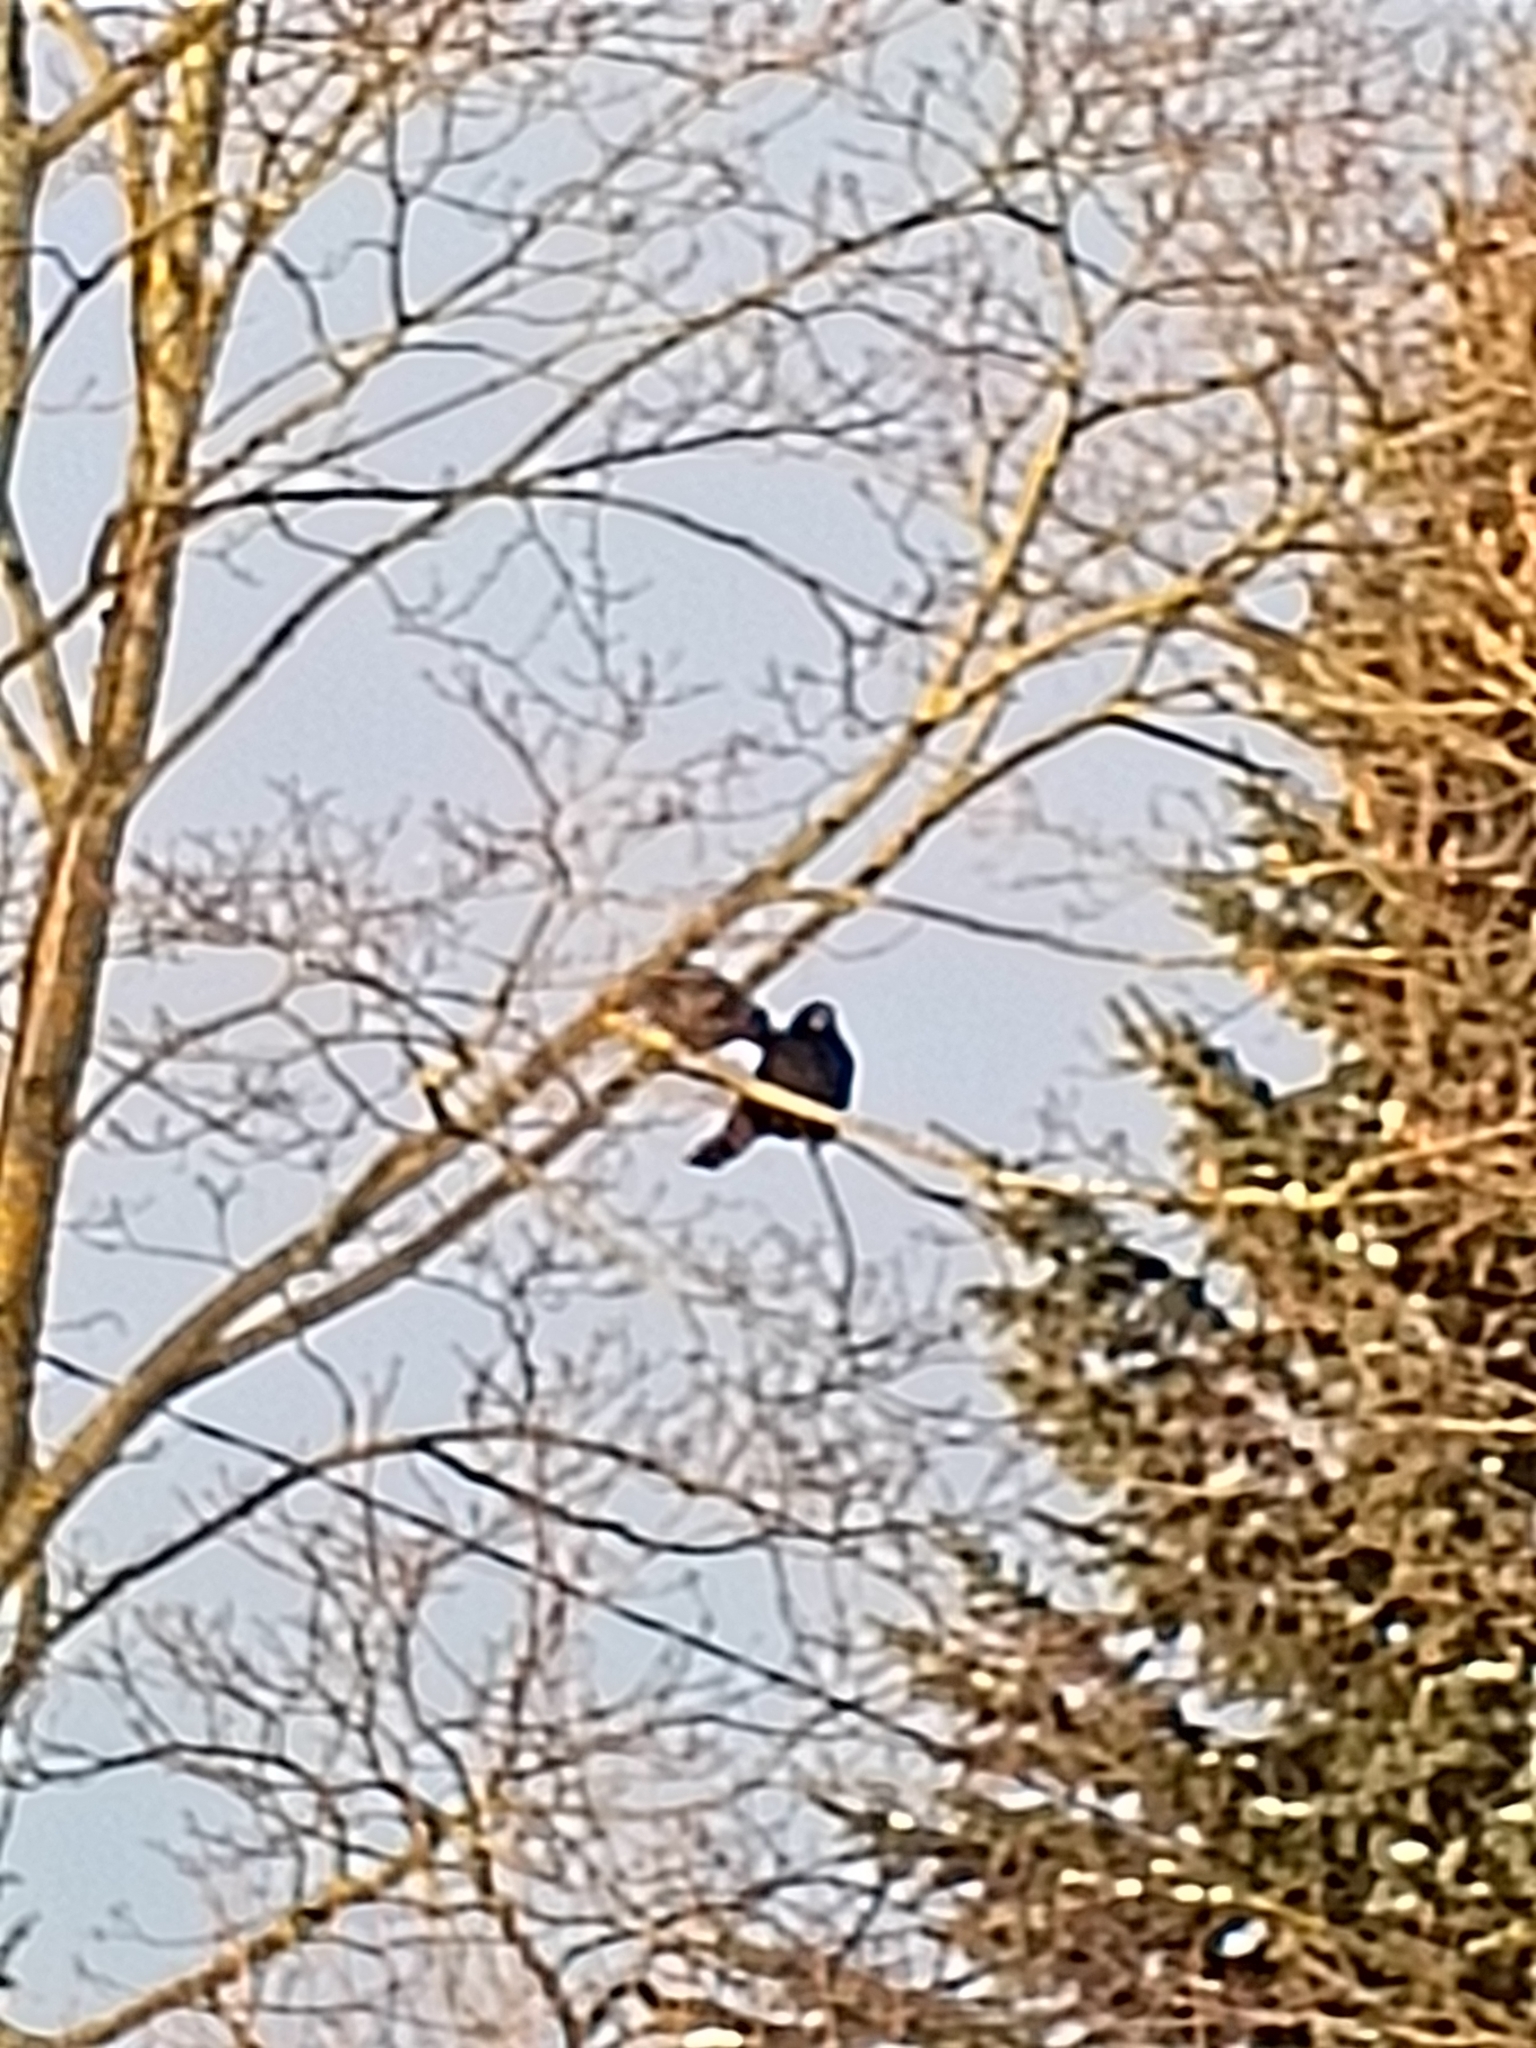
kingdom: Animalia
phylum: Chordata
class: Aves
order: Passeriformes
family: Corvidae
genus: Corvus
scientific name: Corvus frugilegus
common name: Rook
